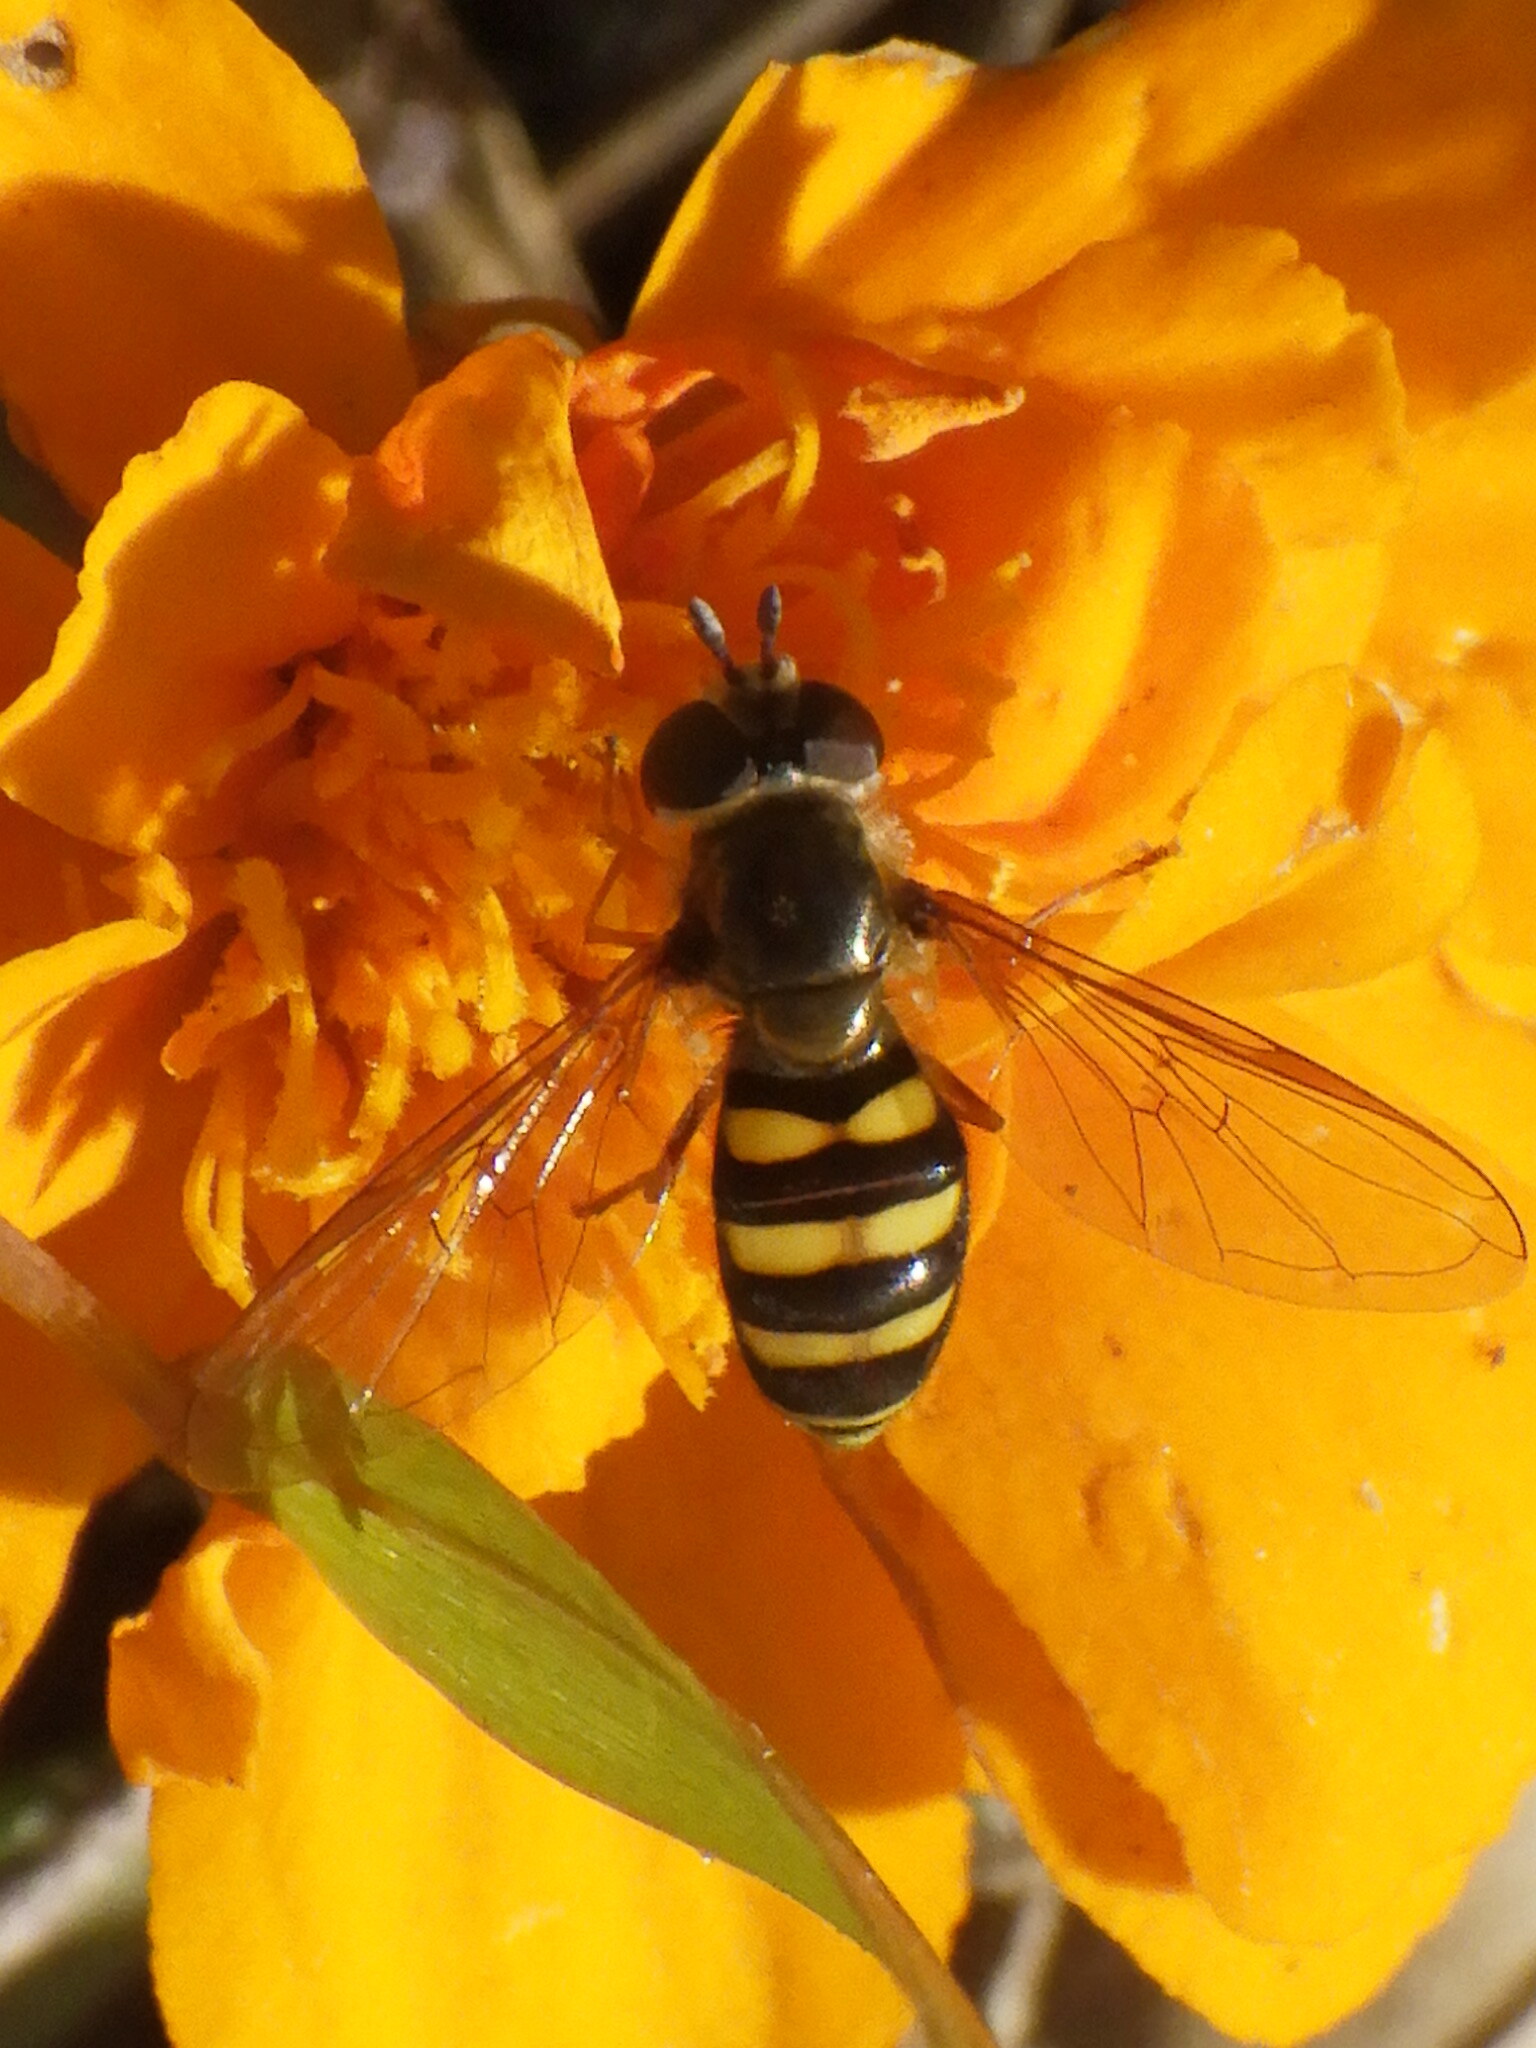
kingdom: Animalia
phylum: Arthropoda
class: Insecta
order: Diptera
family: Syrphidae
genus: Eupeodes
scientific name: Eupeodes
